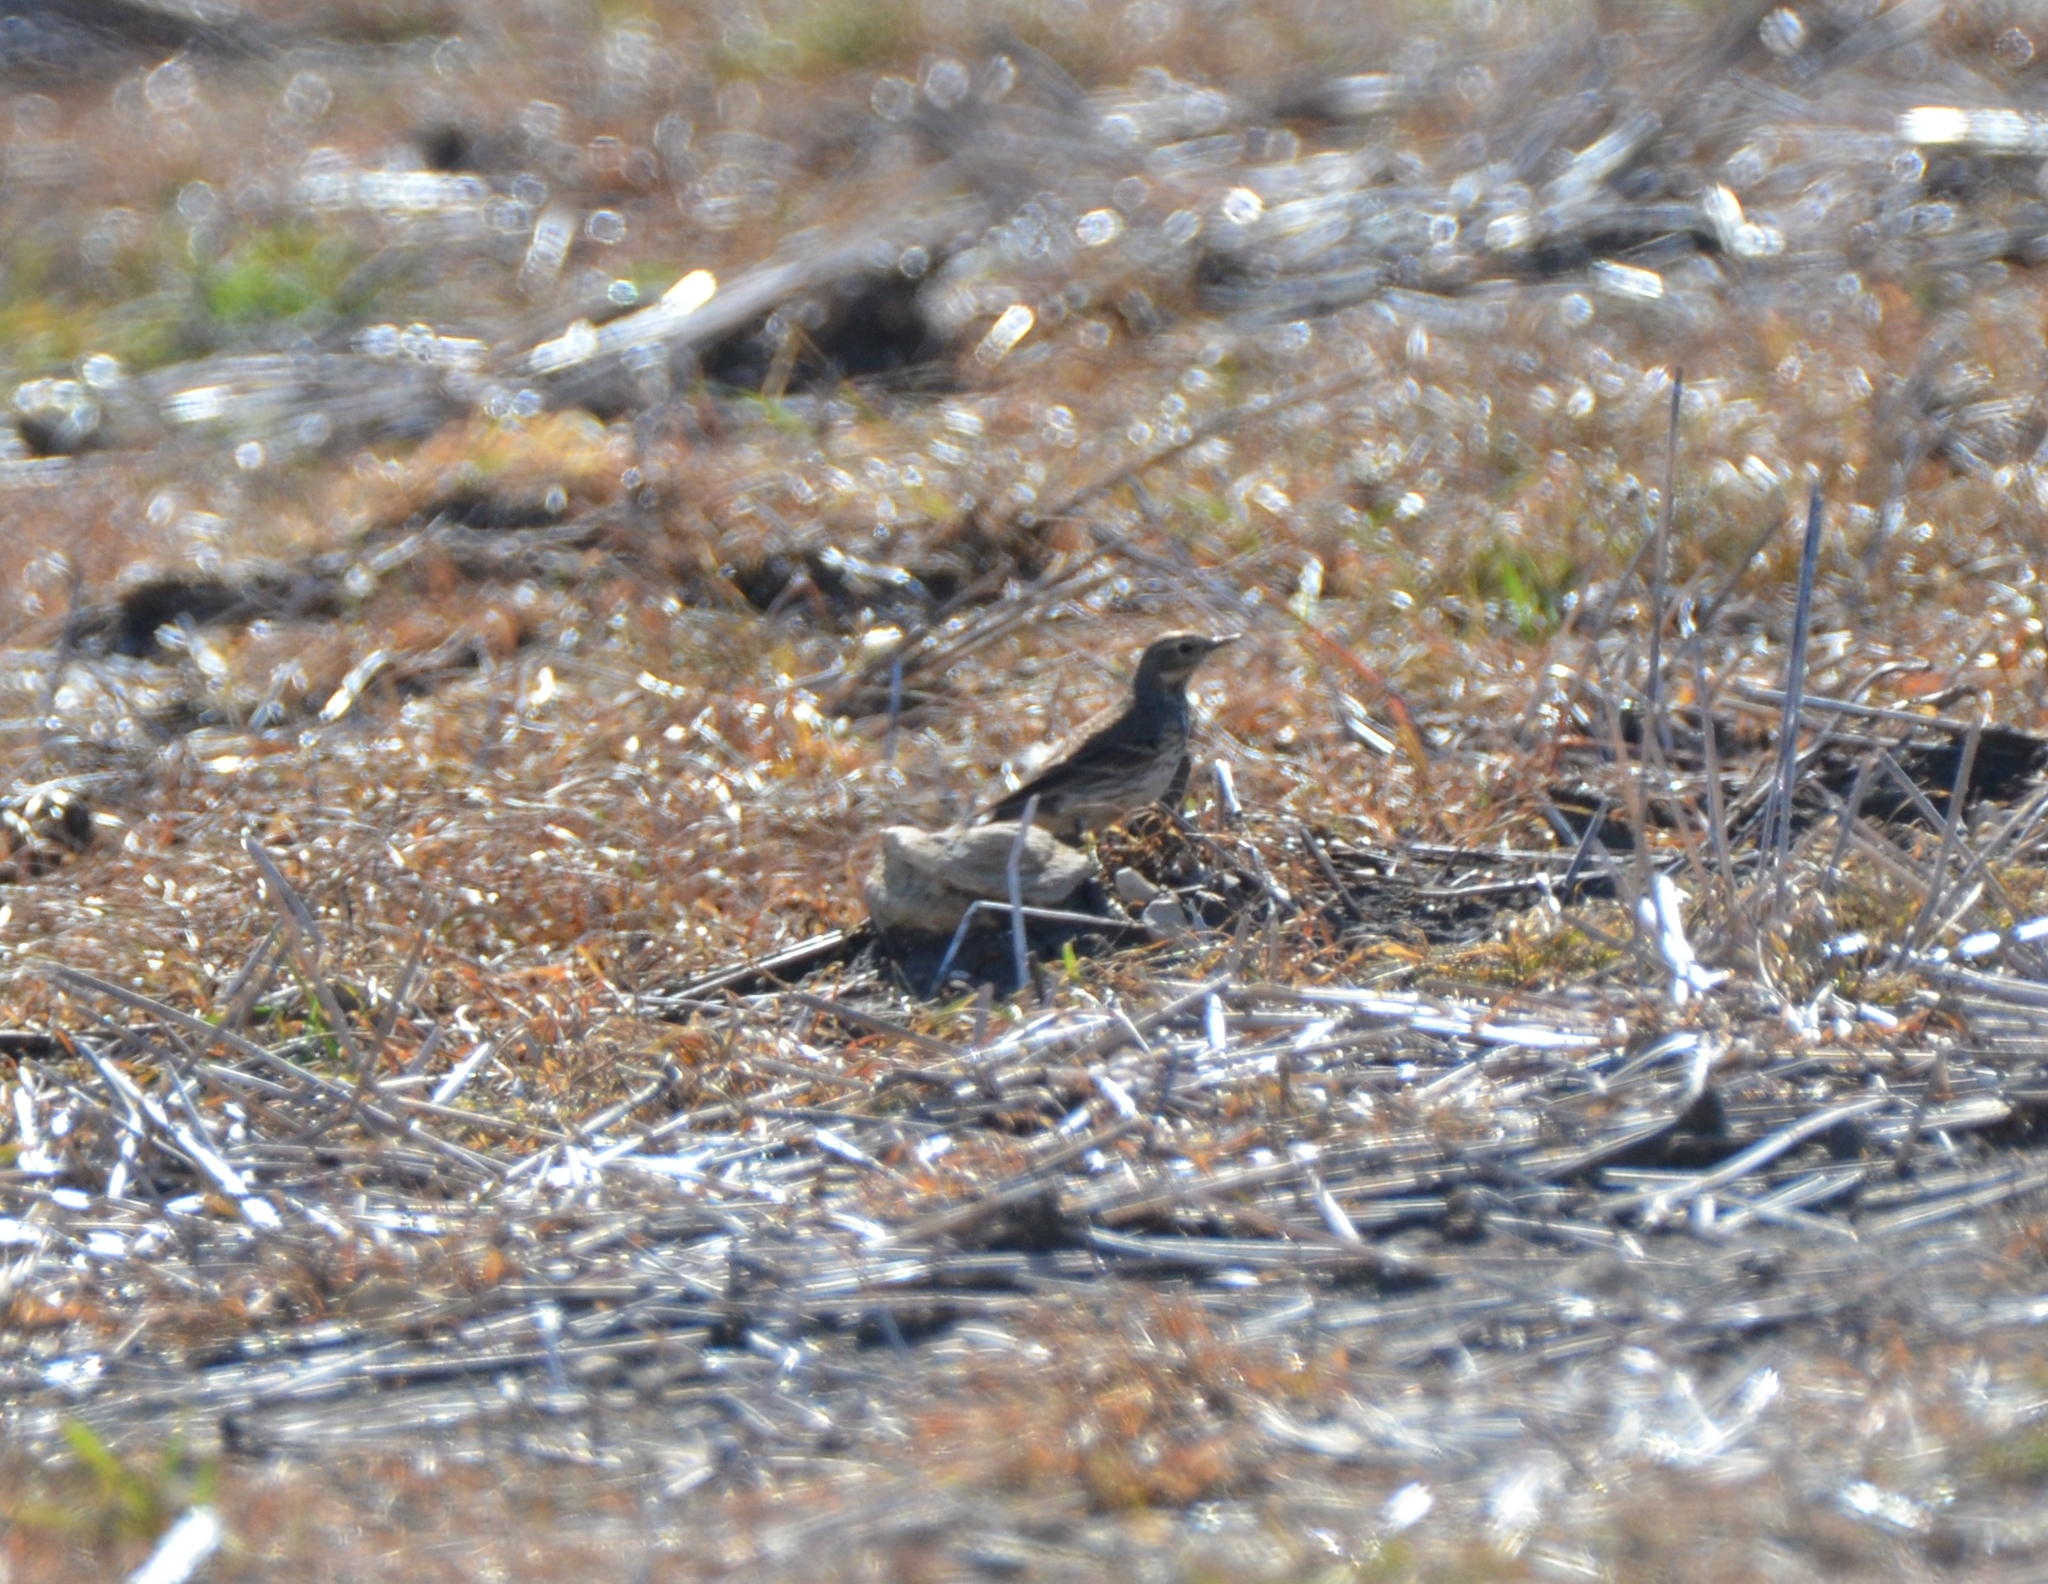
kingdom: Animalia
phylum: Chordata
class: Aves
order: Passeriformes
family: Motacillidae
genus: Anthus
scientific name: Anthus rubescens
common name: Buff-bellied pipit
